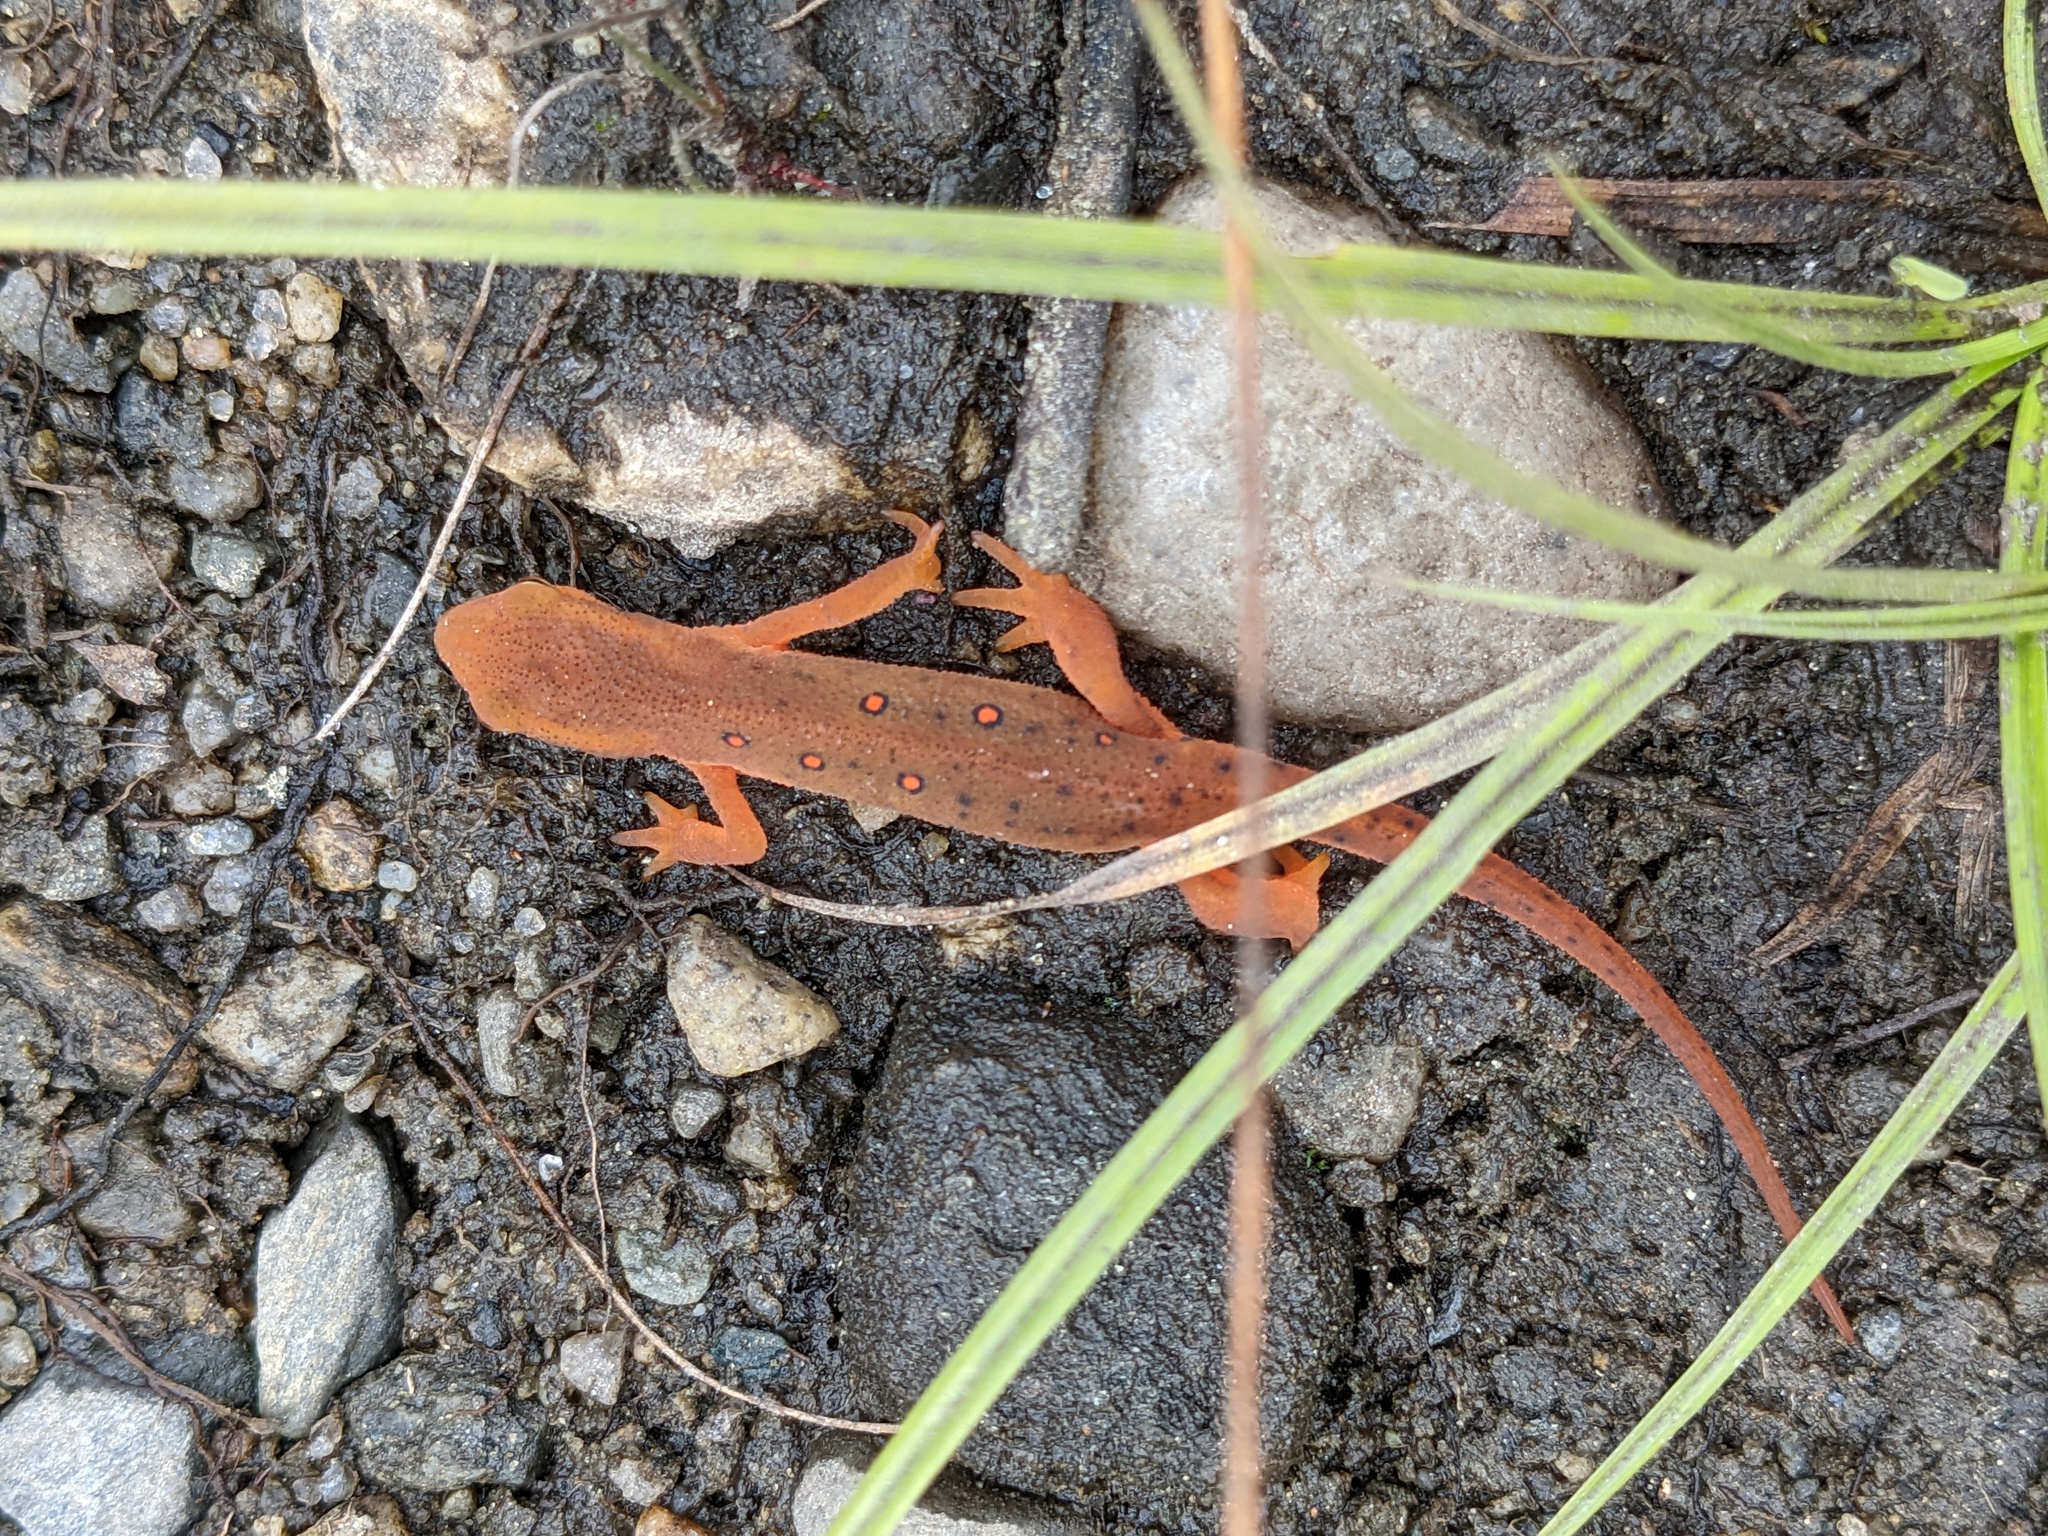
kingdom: Animalia
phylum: Chordata
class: Amphibia
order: Caudata
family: Salamandridae
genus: Notophthalmus
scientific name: Notophthalmus viridescens
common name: Eastern newt
